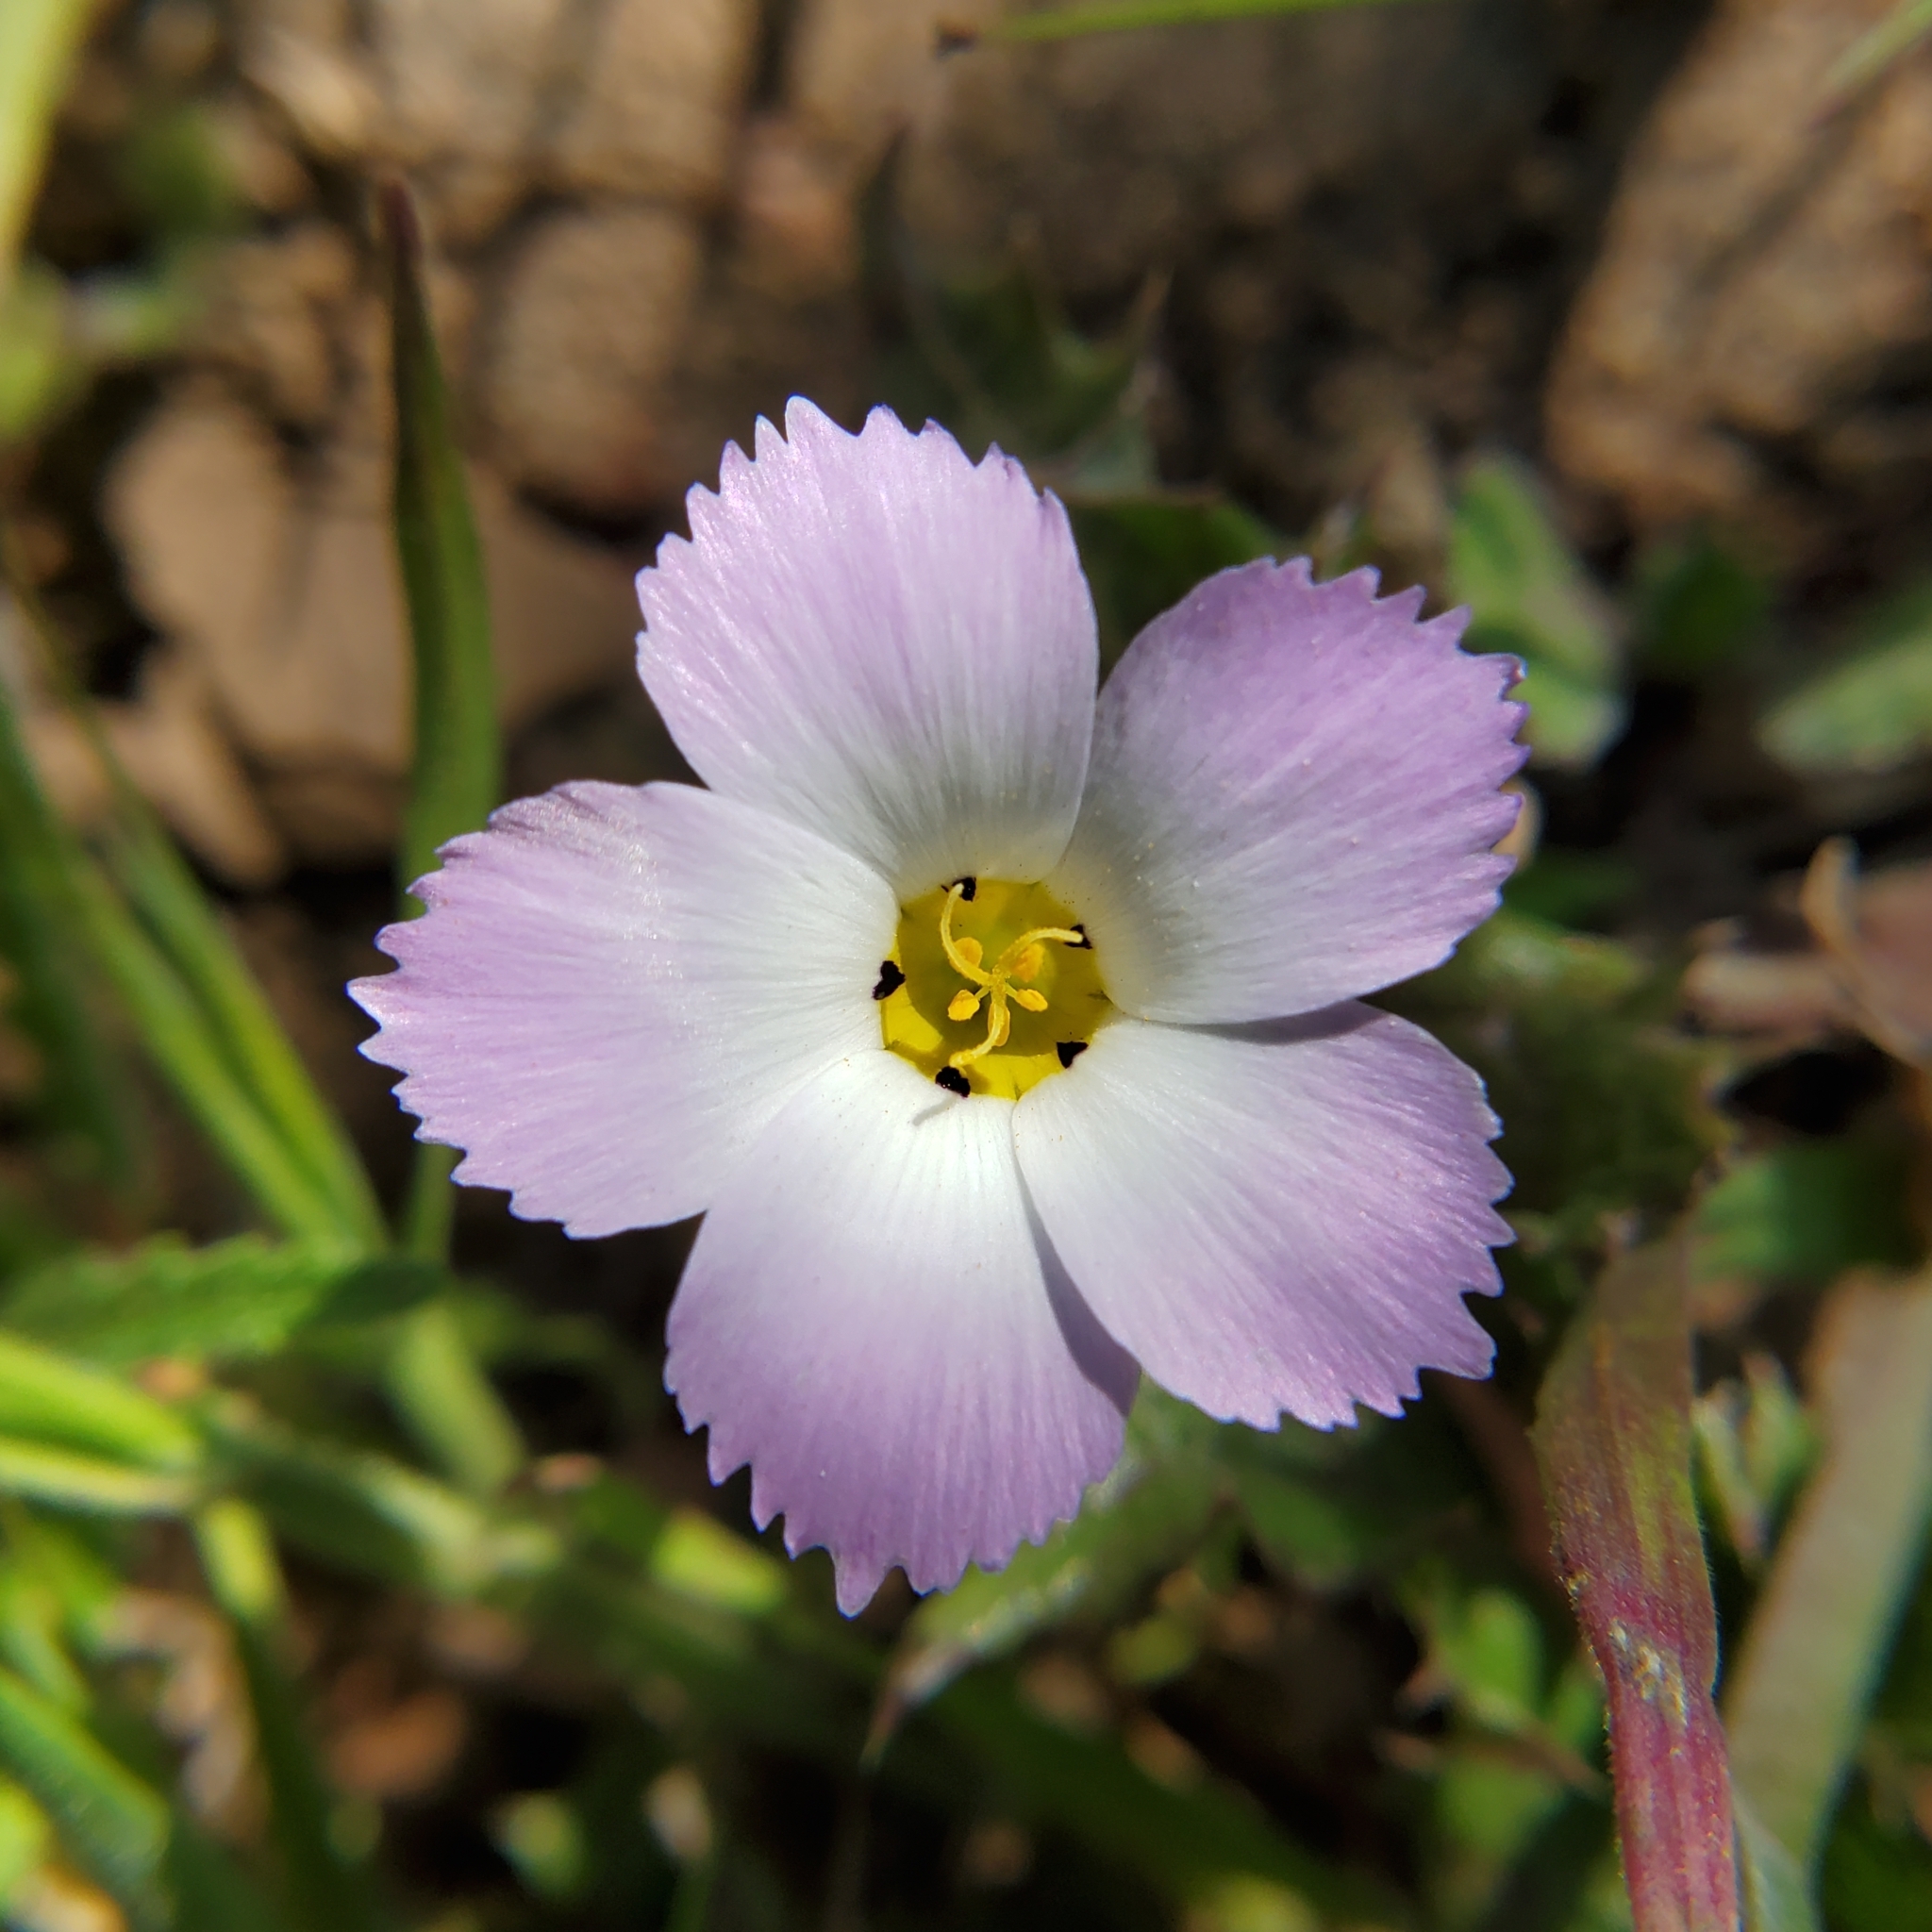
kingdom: Plantae
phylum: Tracheophyta
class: Magnoliopsida
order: Ericales
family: Polemoniaceae
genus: Linanthus
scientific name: Linanthus dianthiflorus
